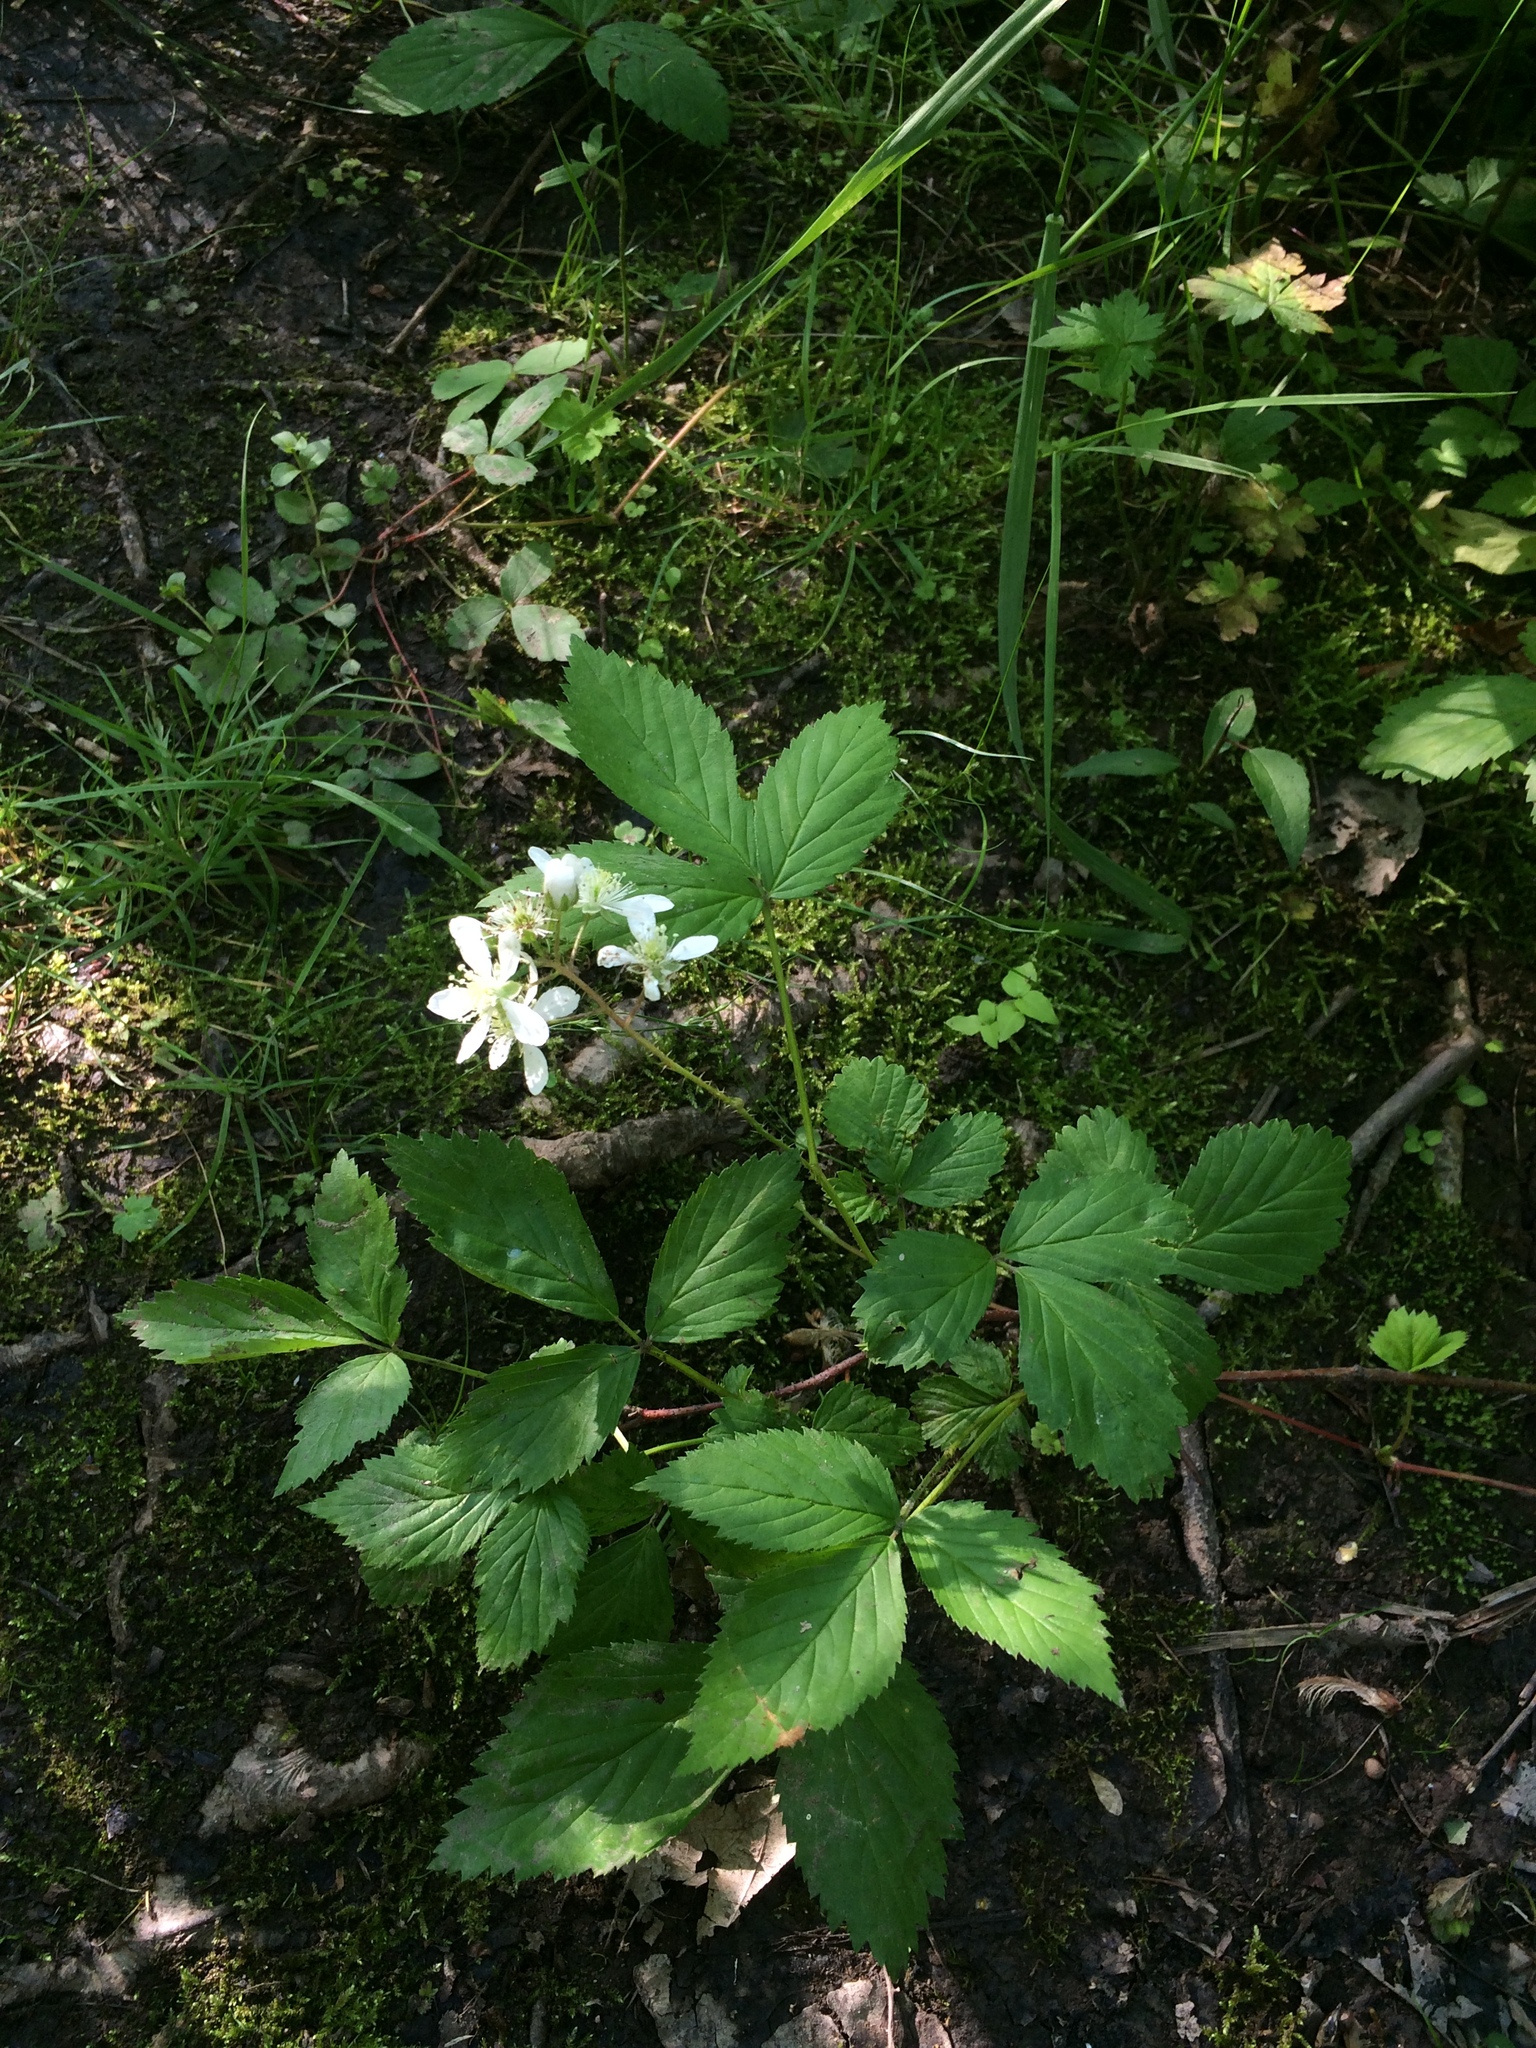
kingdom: Plantae
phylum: Tracheophyta
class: Magnoliopsida
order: Rosales
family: Rosaceae
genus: Rubus
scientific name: Rubus setosus
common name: Bristly blackberry
